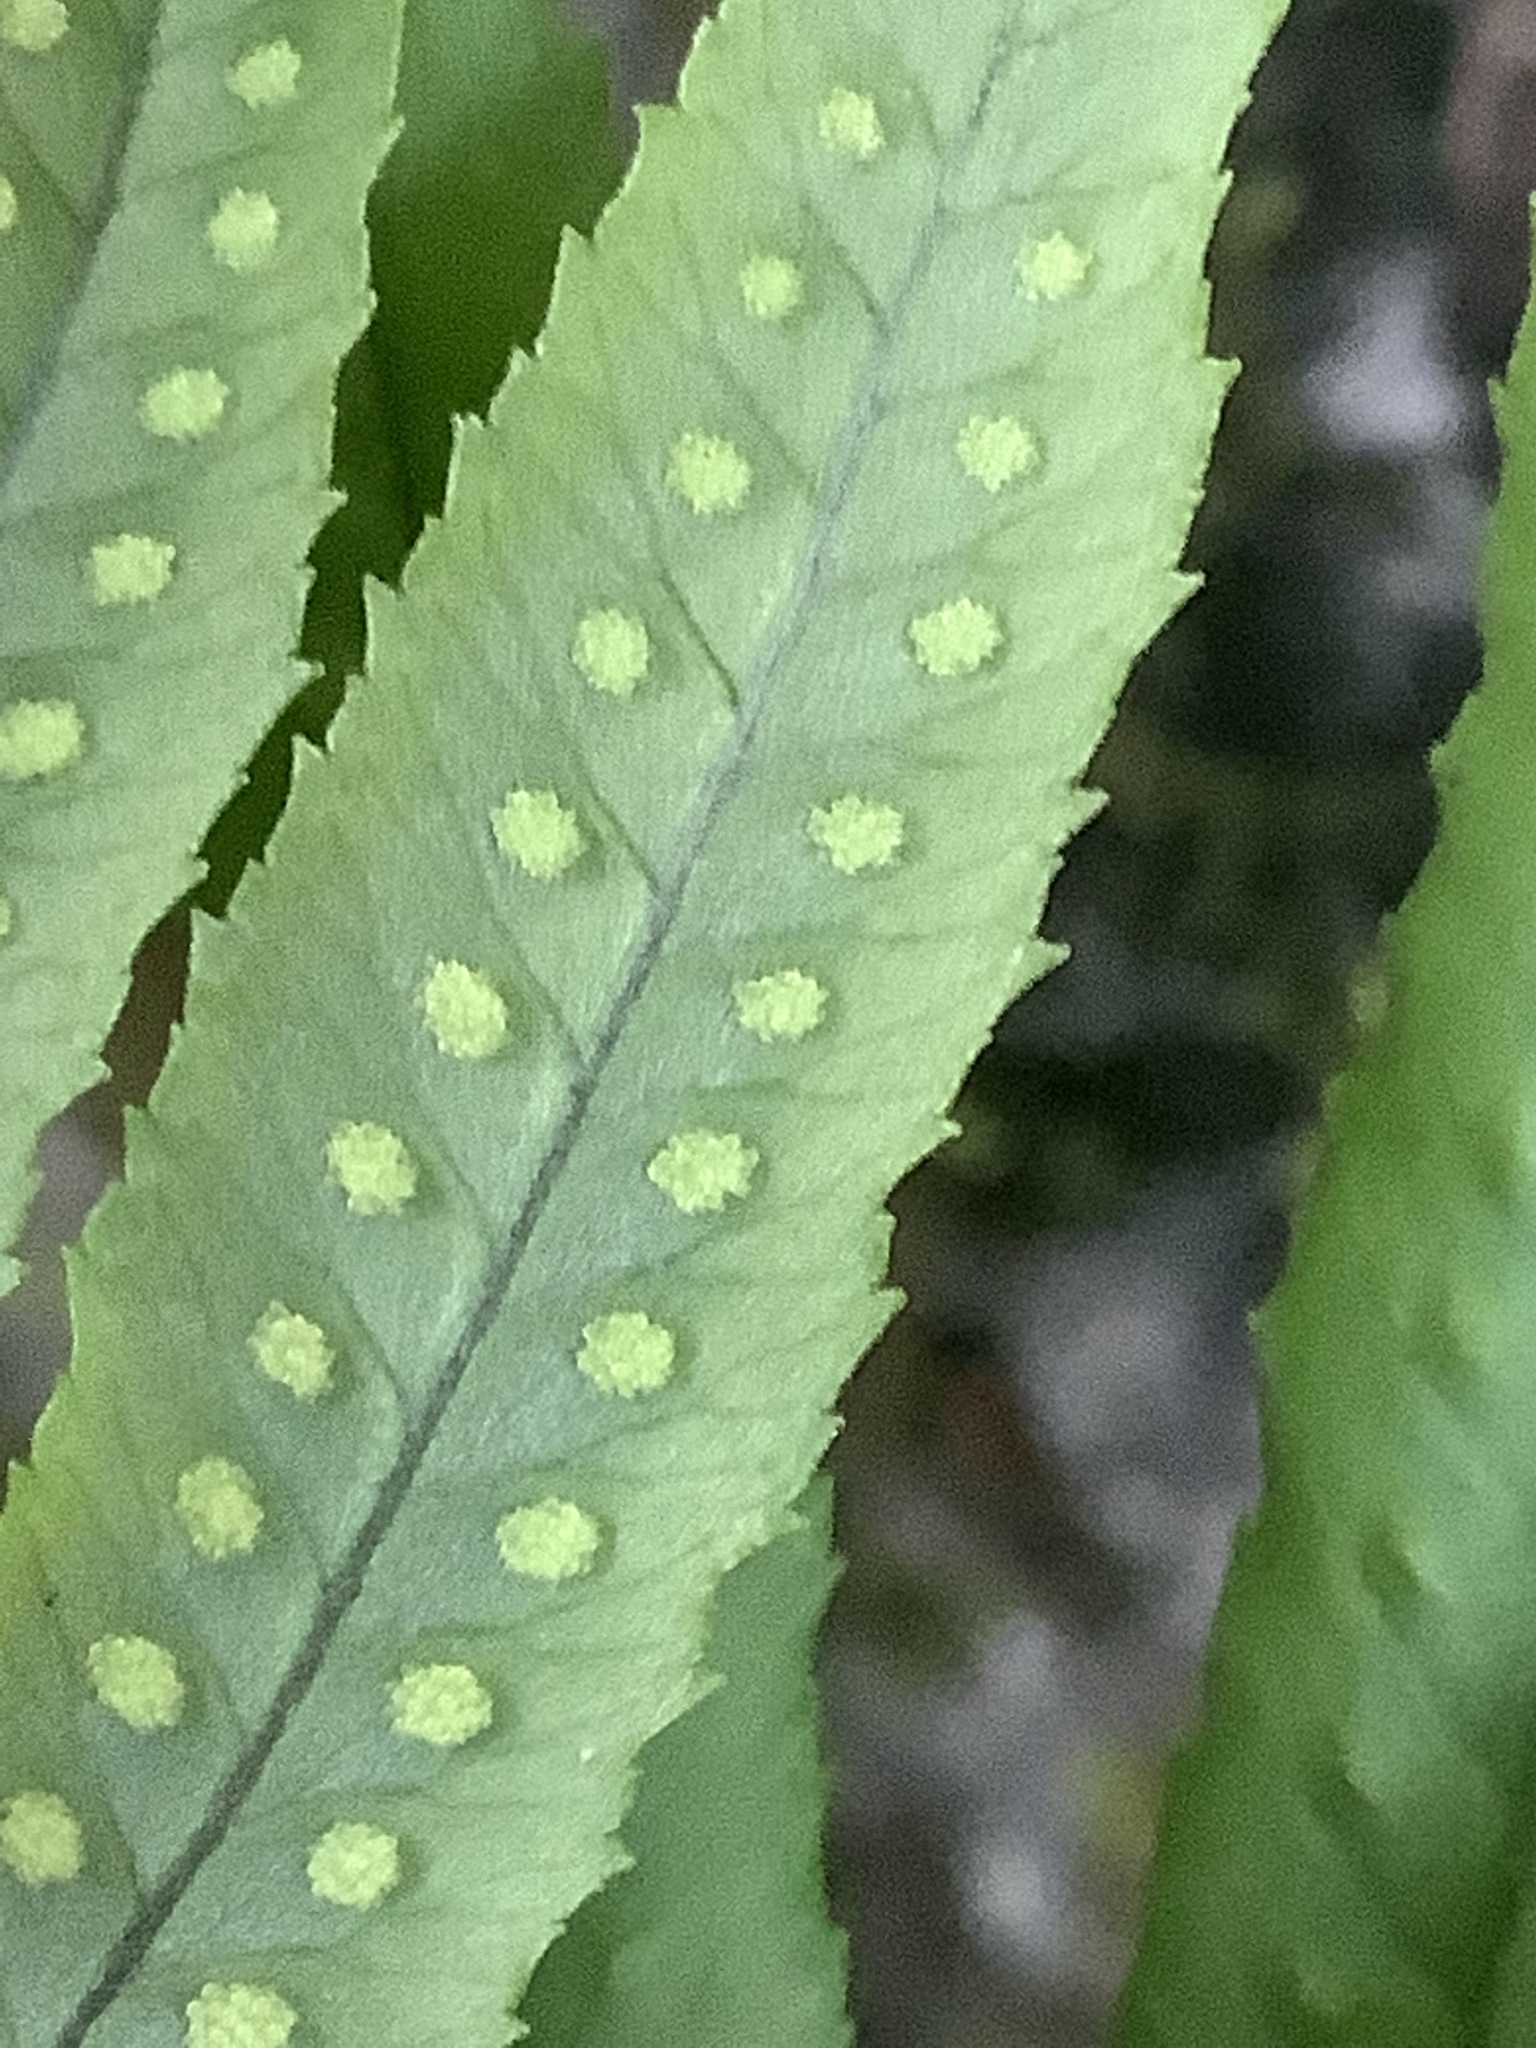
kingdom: Plantae
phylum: Tracheophyta
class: Polypodiopsida
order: Polypodiales
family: Polypodiaceae
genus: Polypodium
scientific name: Polypodium glycyrrhiza
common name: Licorice fern
